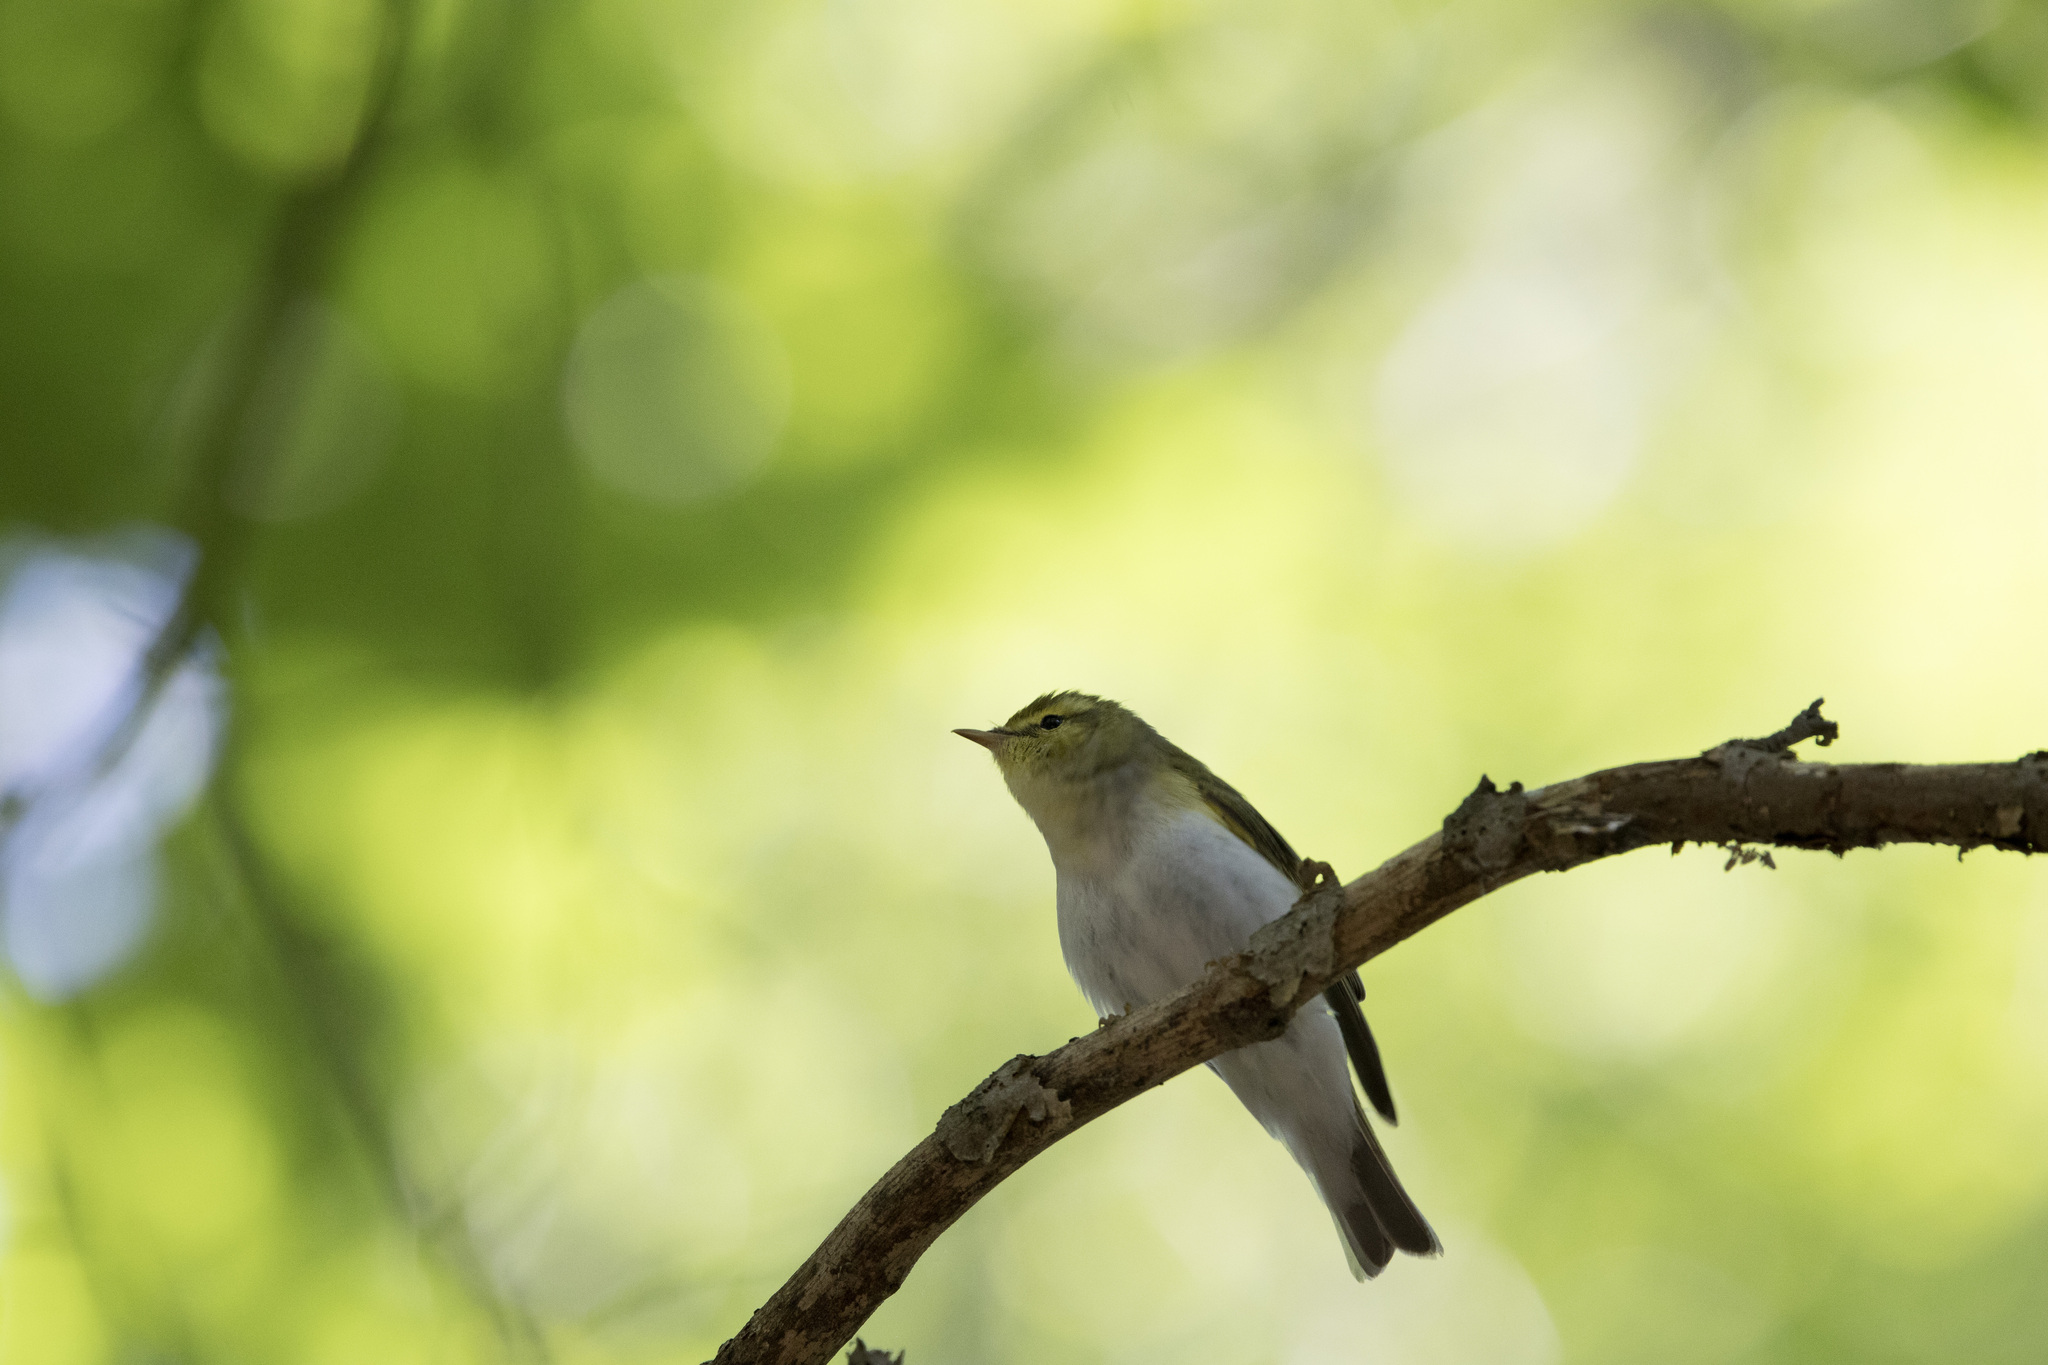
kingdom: Animalia
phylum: Chordata
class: Aves
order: Passeriformes
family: Phylloscopidae
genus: Phylloscopus
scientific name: Phylloscopus sibillatrix
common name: Wood warbler
